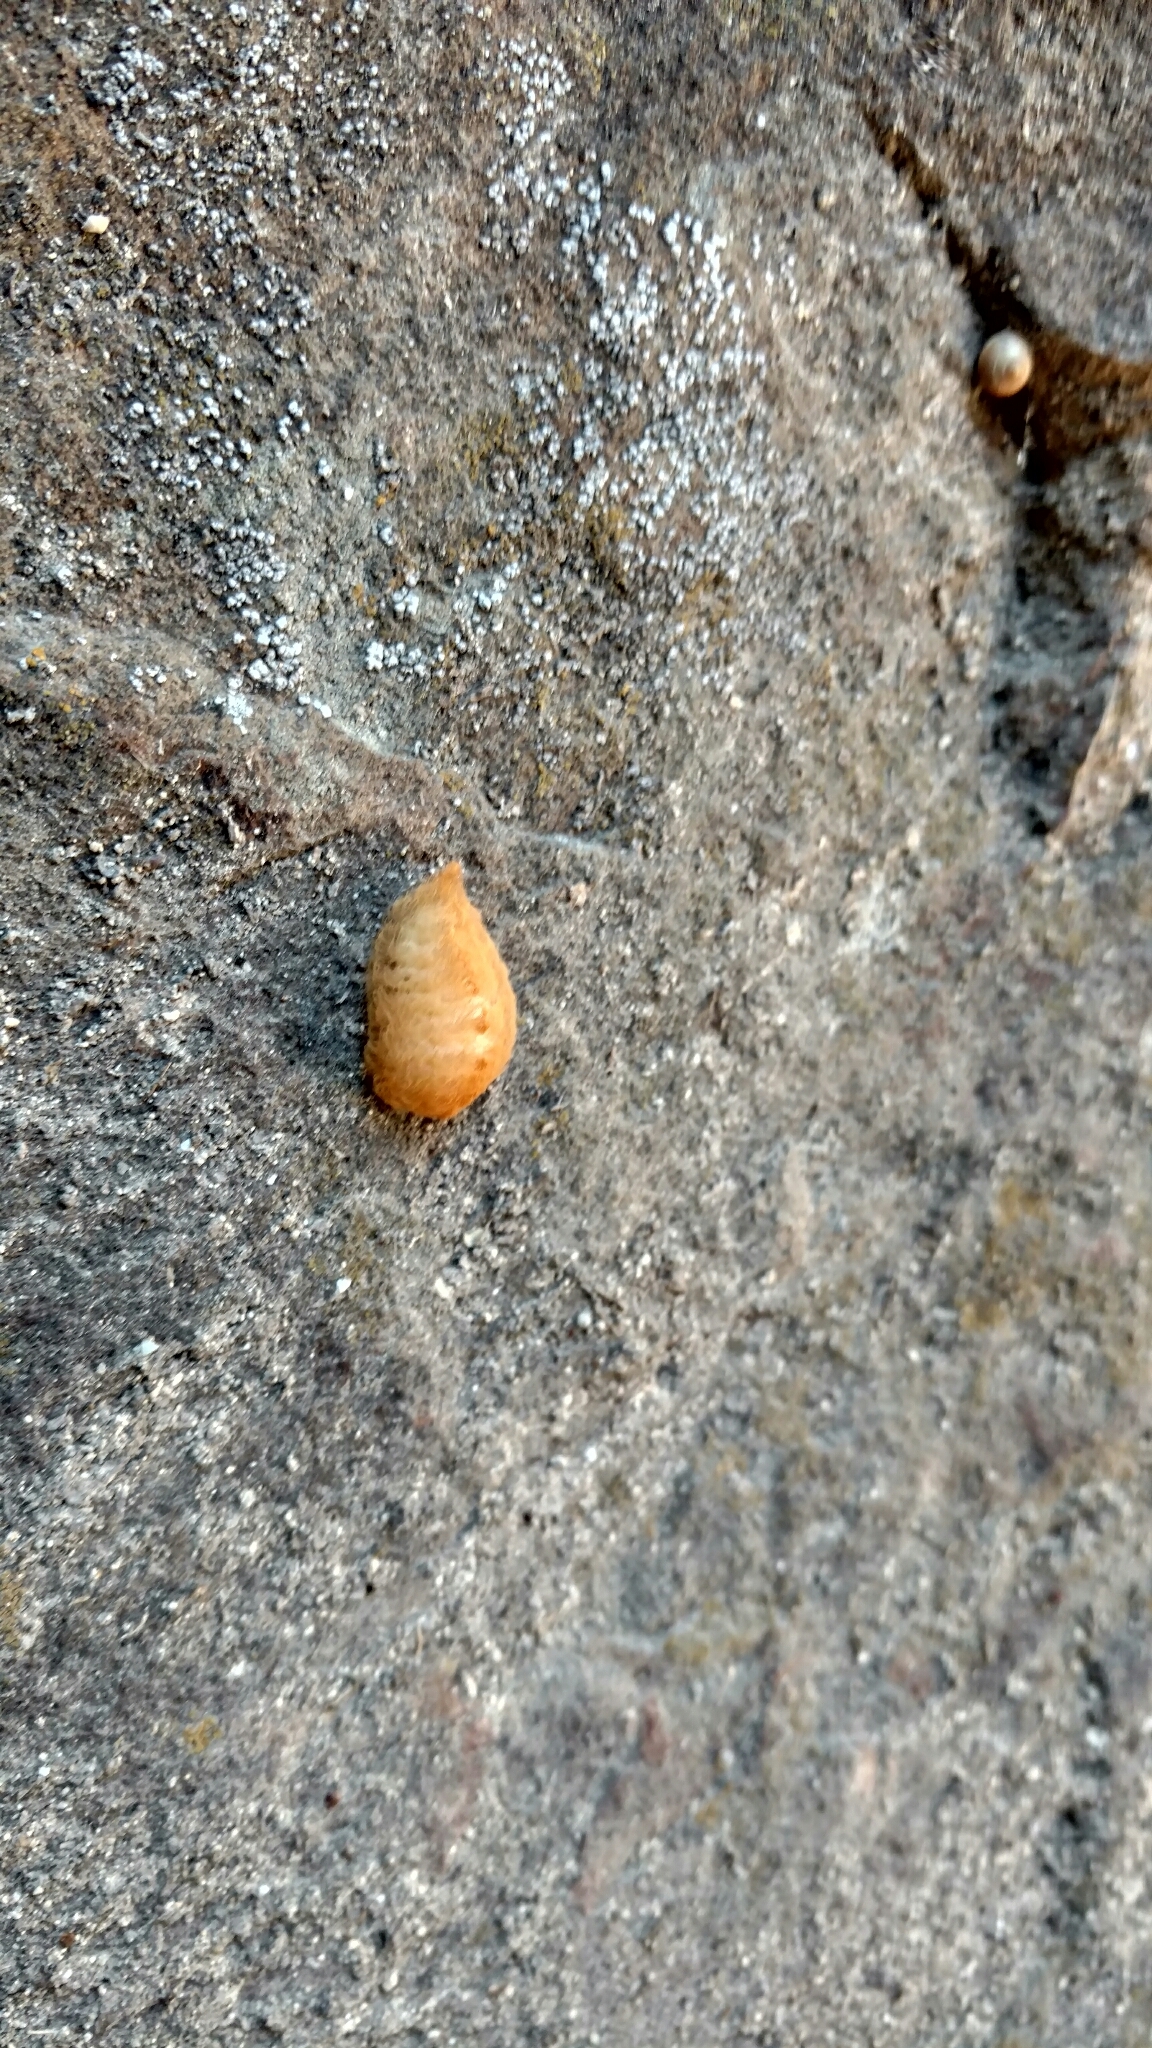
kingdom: Animalia
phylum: Arthropoda
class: Insecta
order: Lepidoptera
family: Megalopygidae
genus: Megalopyge
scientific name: Megalopyge opercularis
